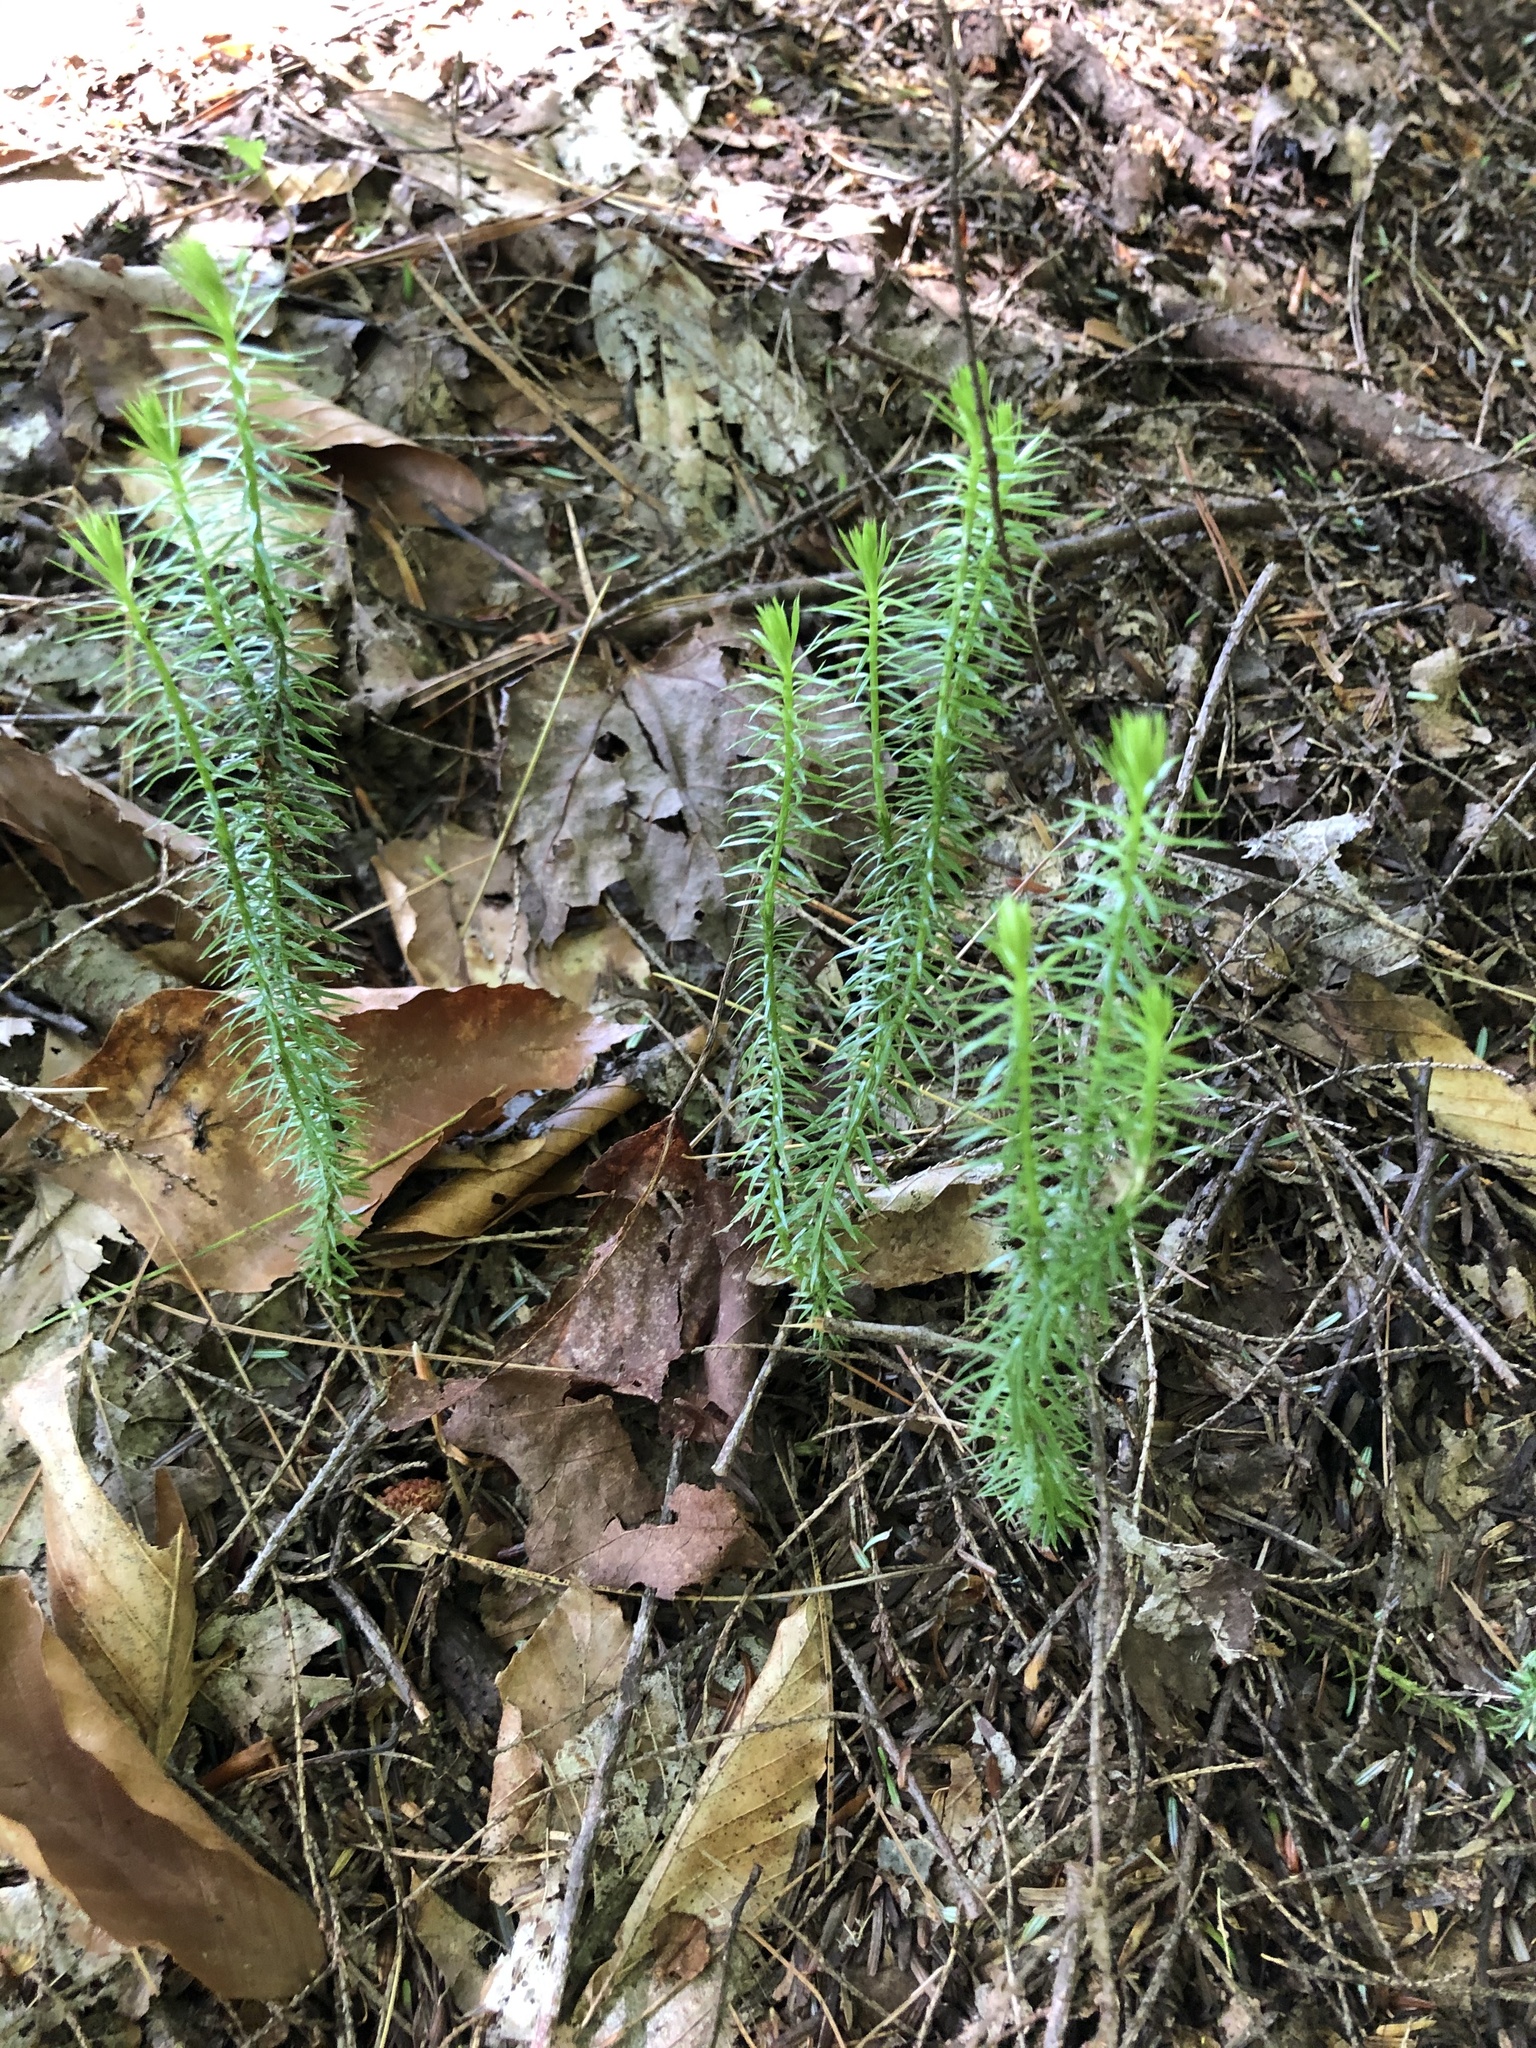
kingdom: Plantae
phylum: Tracheophyta
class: Lycopodiopsida
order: Lycopodiales
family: Lycopodiaceae
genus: Spinulum
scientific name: Spinulum annotinum
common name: Interrupted club-moss
